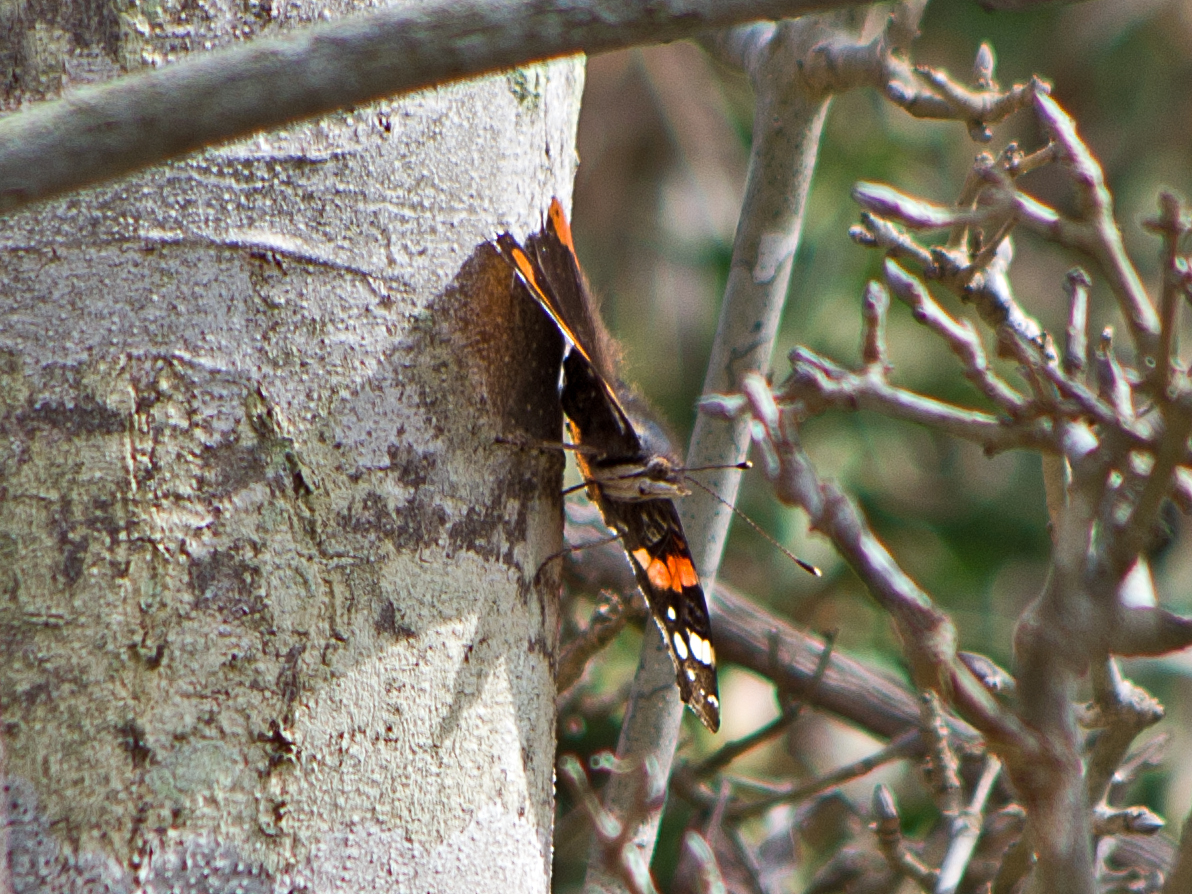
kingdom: Animalia
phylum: Arthropoda
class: Insecta
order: Lepidoptera
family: Nymphalidae
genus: Vanessa
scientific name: Vanessa atalanta
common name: Red admiral
